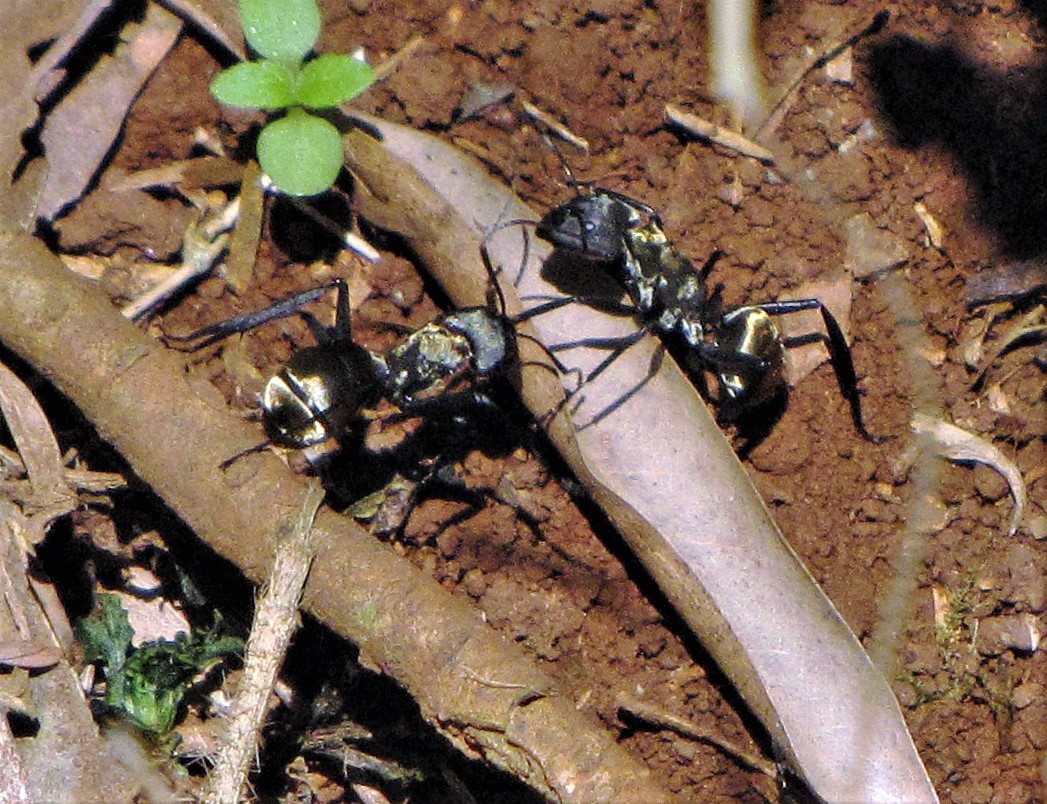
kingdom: Animalia
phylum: Arthropoda
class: Insecta
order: Hymenoptera
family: Formicidae
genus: Camponotus
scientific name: Camponotus sericeiventris
